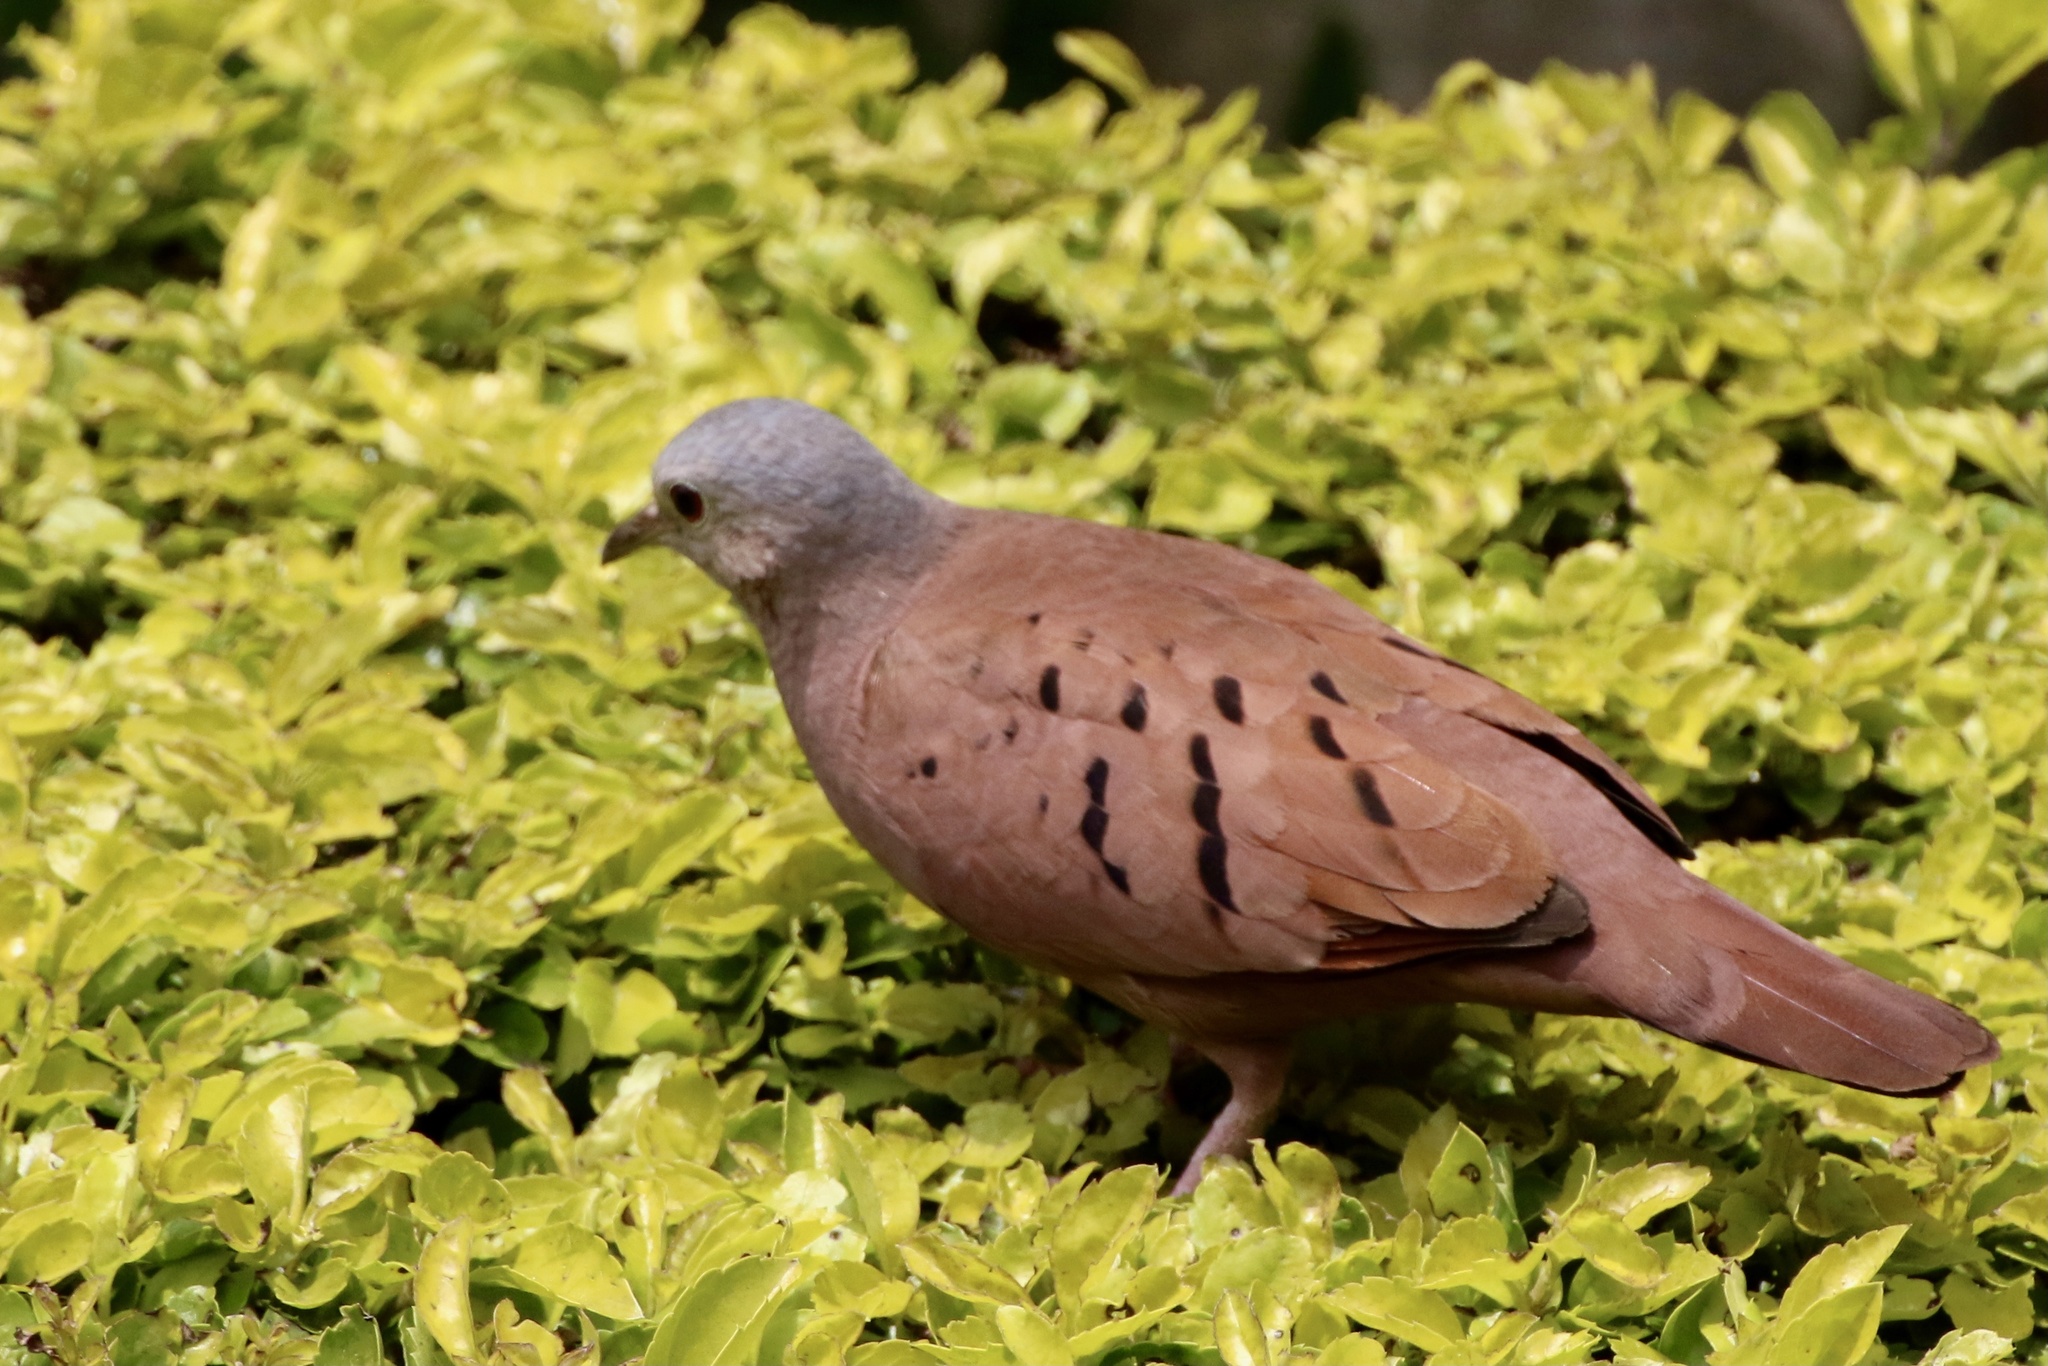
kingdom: Animalia
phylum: Chordata
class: Aves
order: Columbiformes
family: Columbidae
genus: Columbina
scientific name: Columbina talpacoti
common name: Ruddy ground dove
